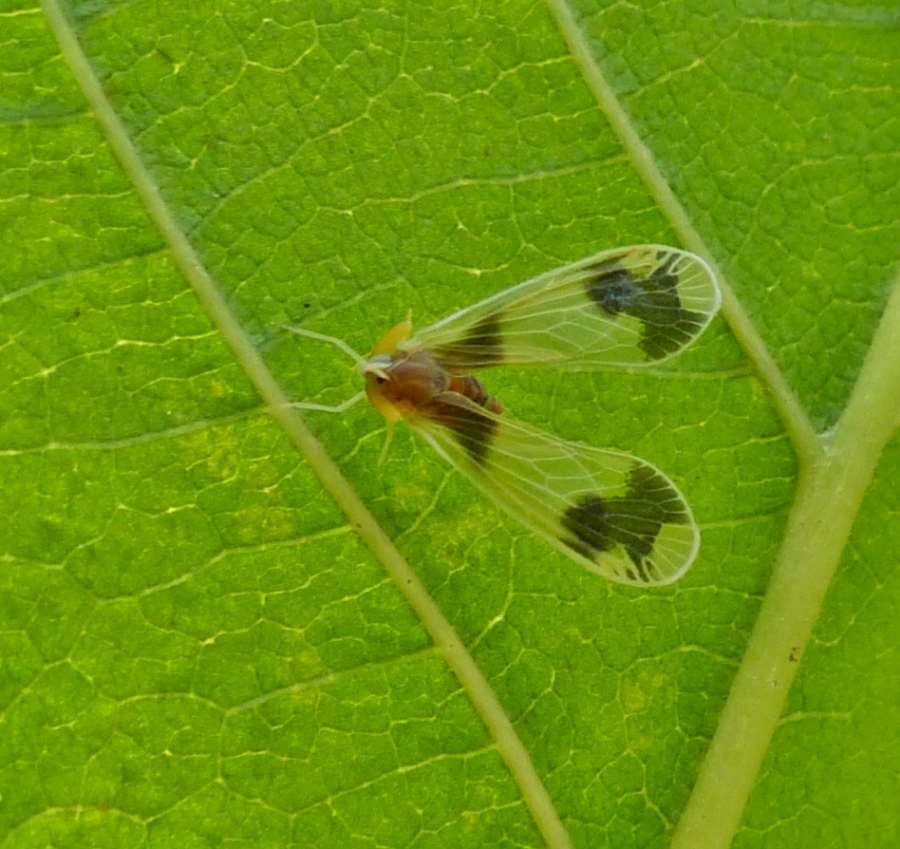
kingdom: Animalia
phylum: Arthropoda
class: Insecta
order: Hemiptera
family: Derbidae
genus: Anotia
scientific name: Anotia uhleri
